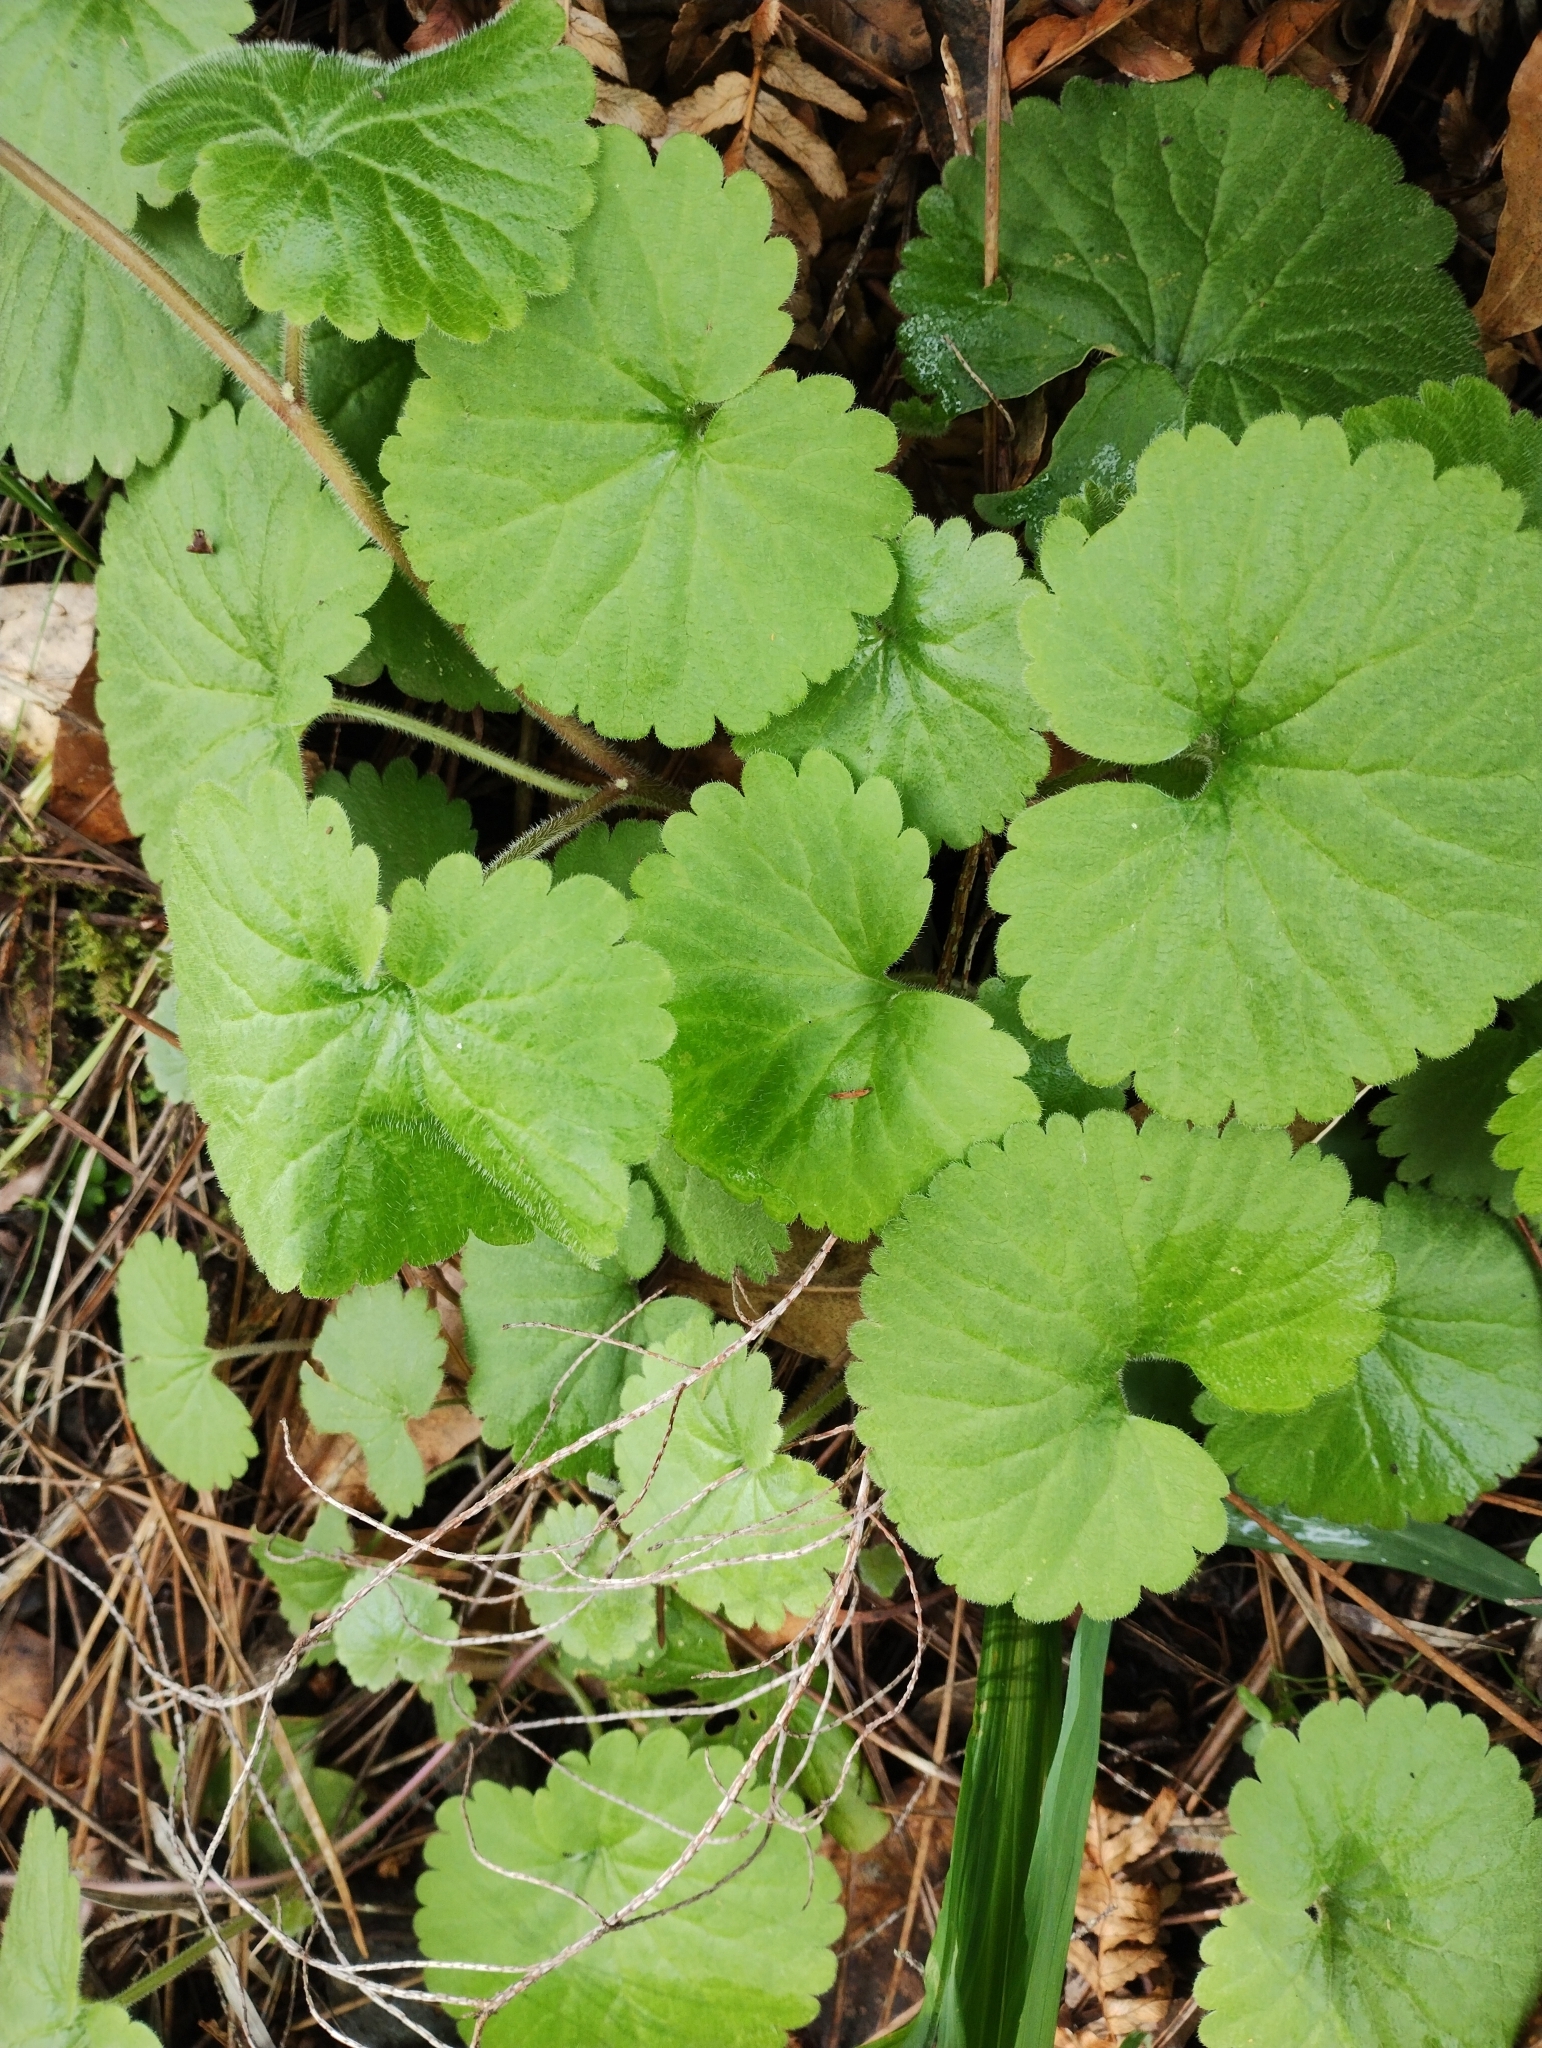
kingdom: Plantae
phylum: Tracheophyta
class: Magnoliopsida
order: Lamiales
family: Plantaginaceae
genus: Sibthorpia
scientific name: Sibthorpia peregrina
